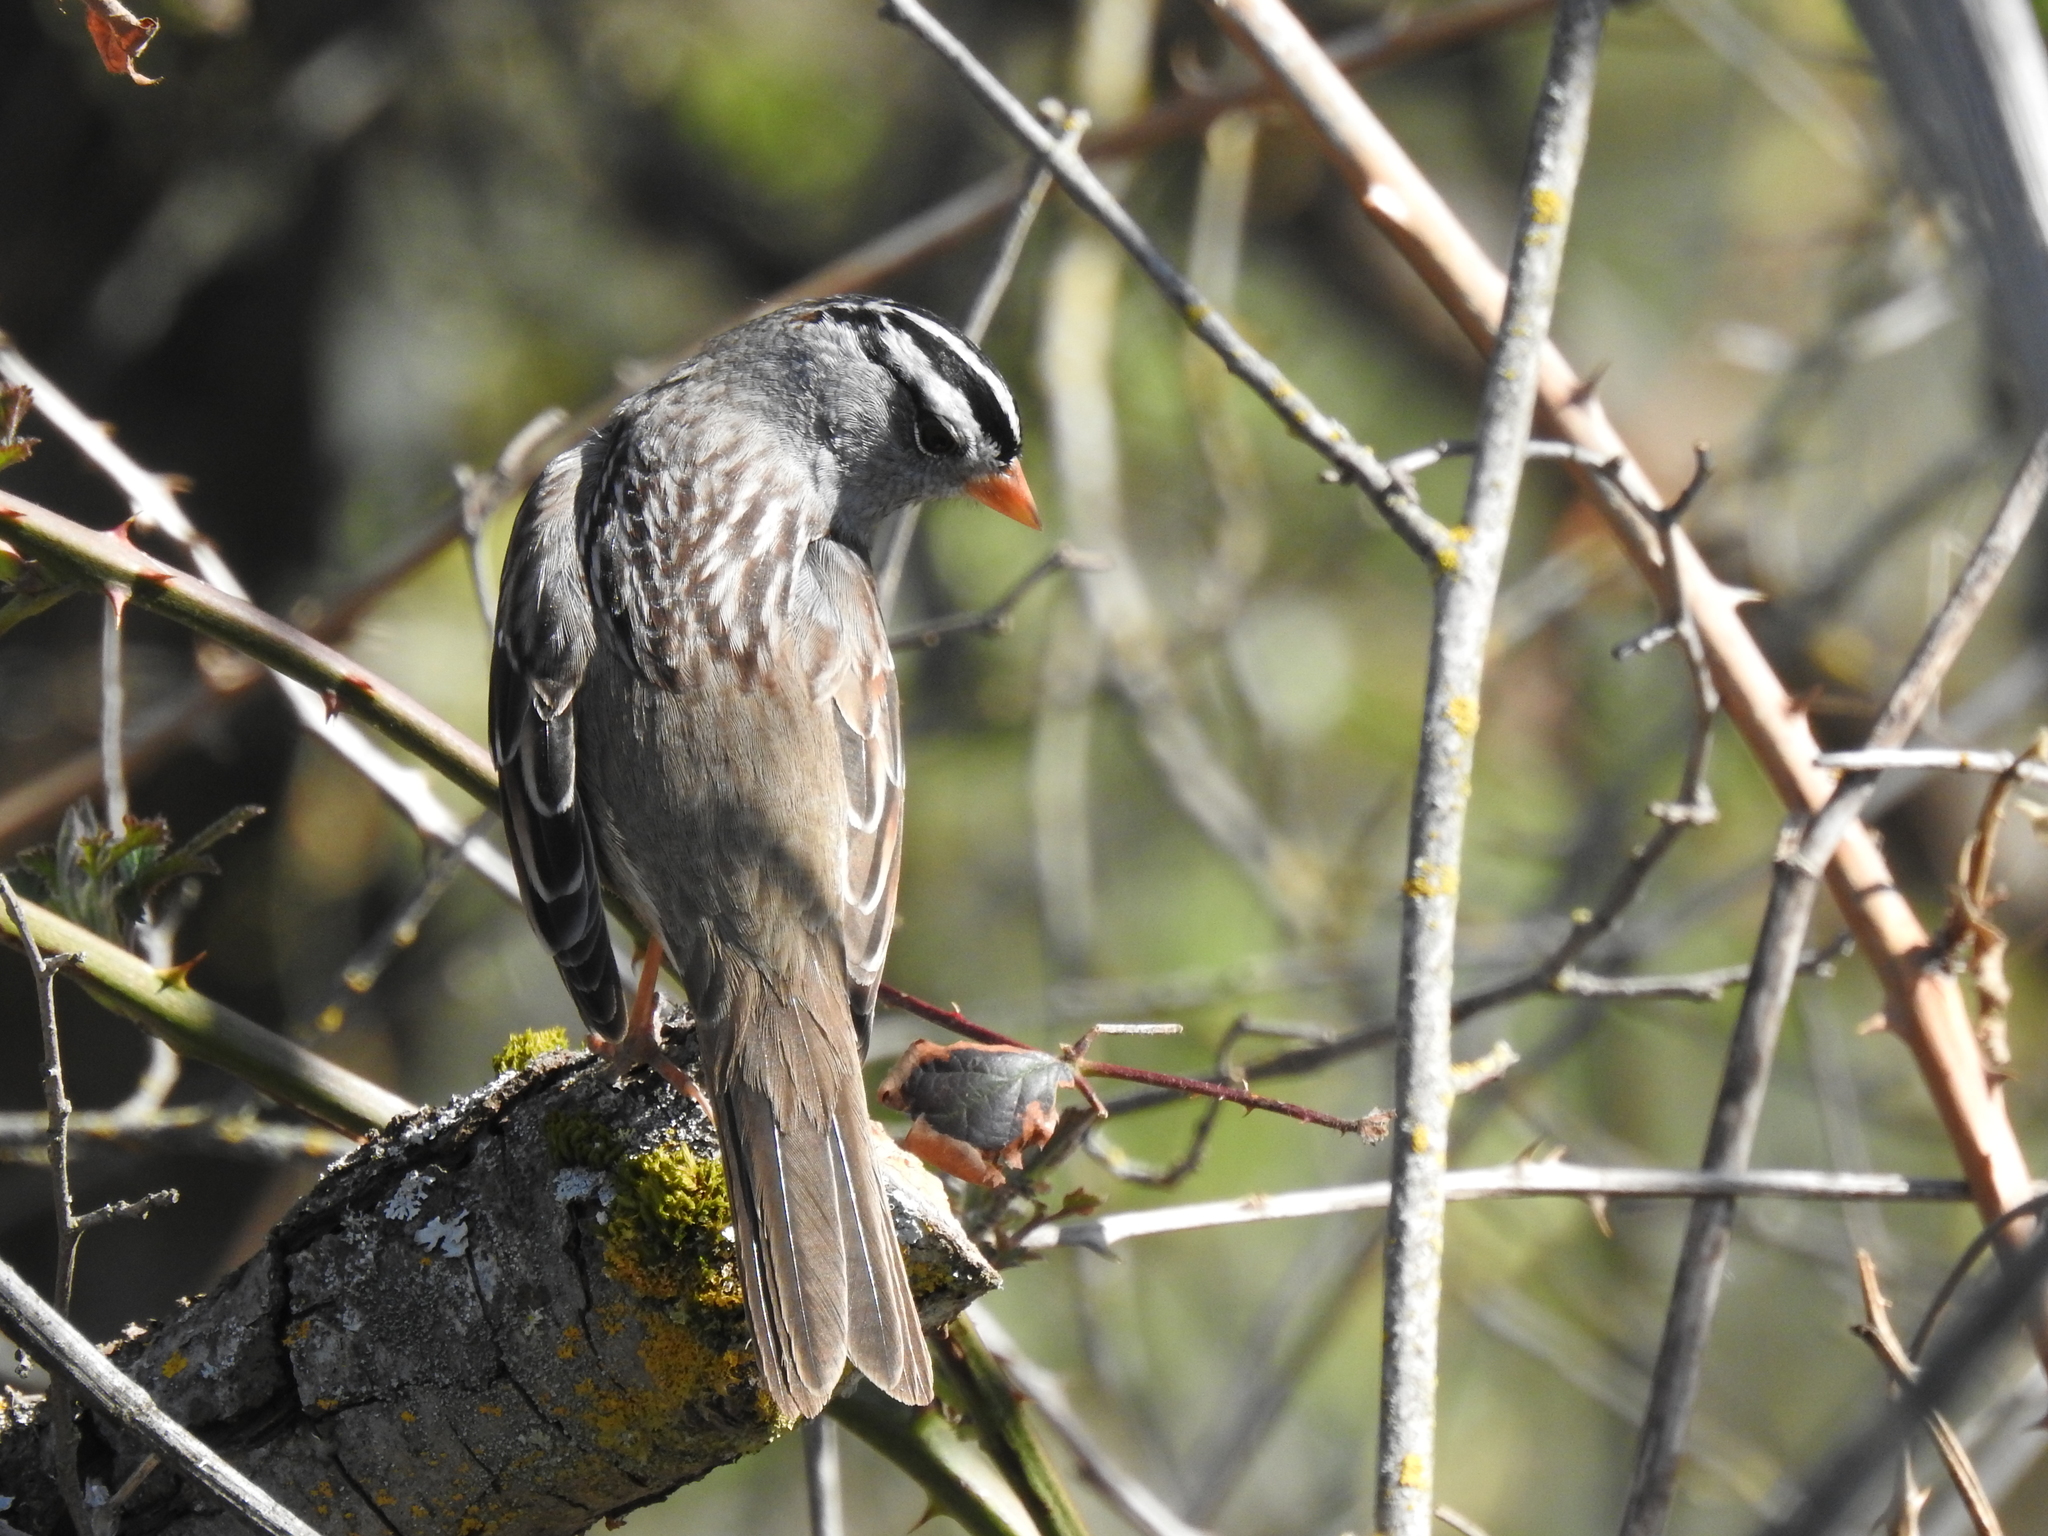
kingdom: Animalia
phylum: Chordata
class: Aves
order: Passeriformes
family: Passerellidae
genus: Zonotrichia
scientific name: Zonotrichia leucophrys
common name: White-crowned sparrow
